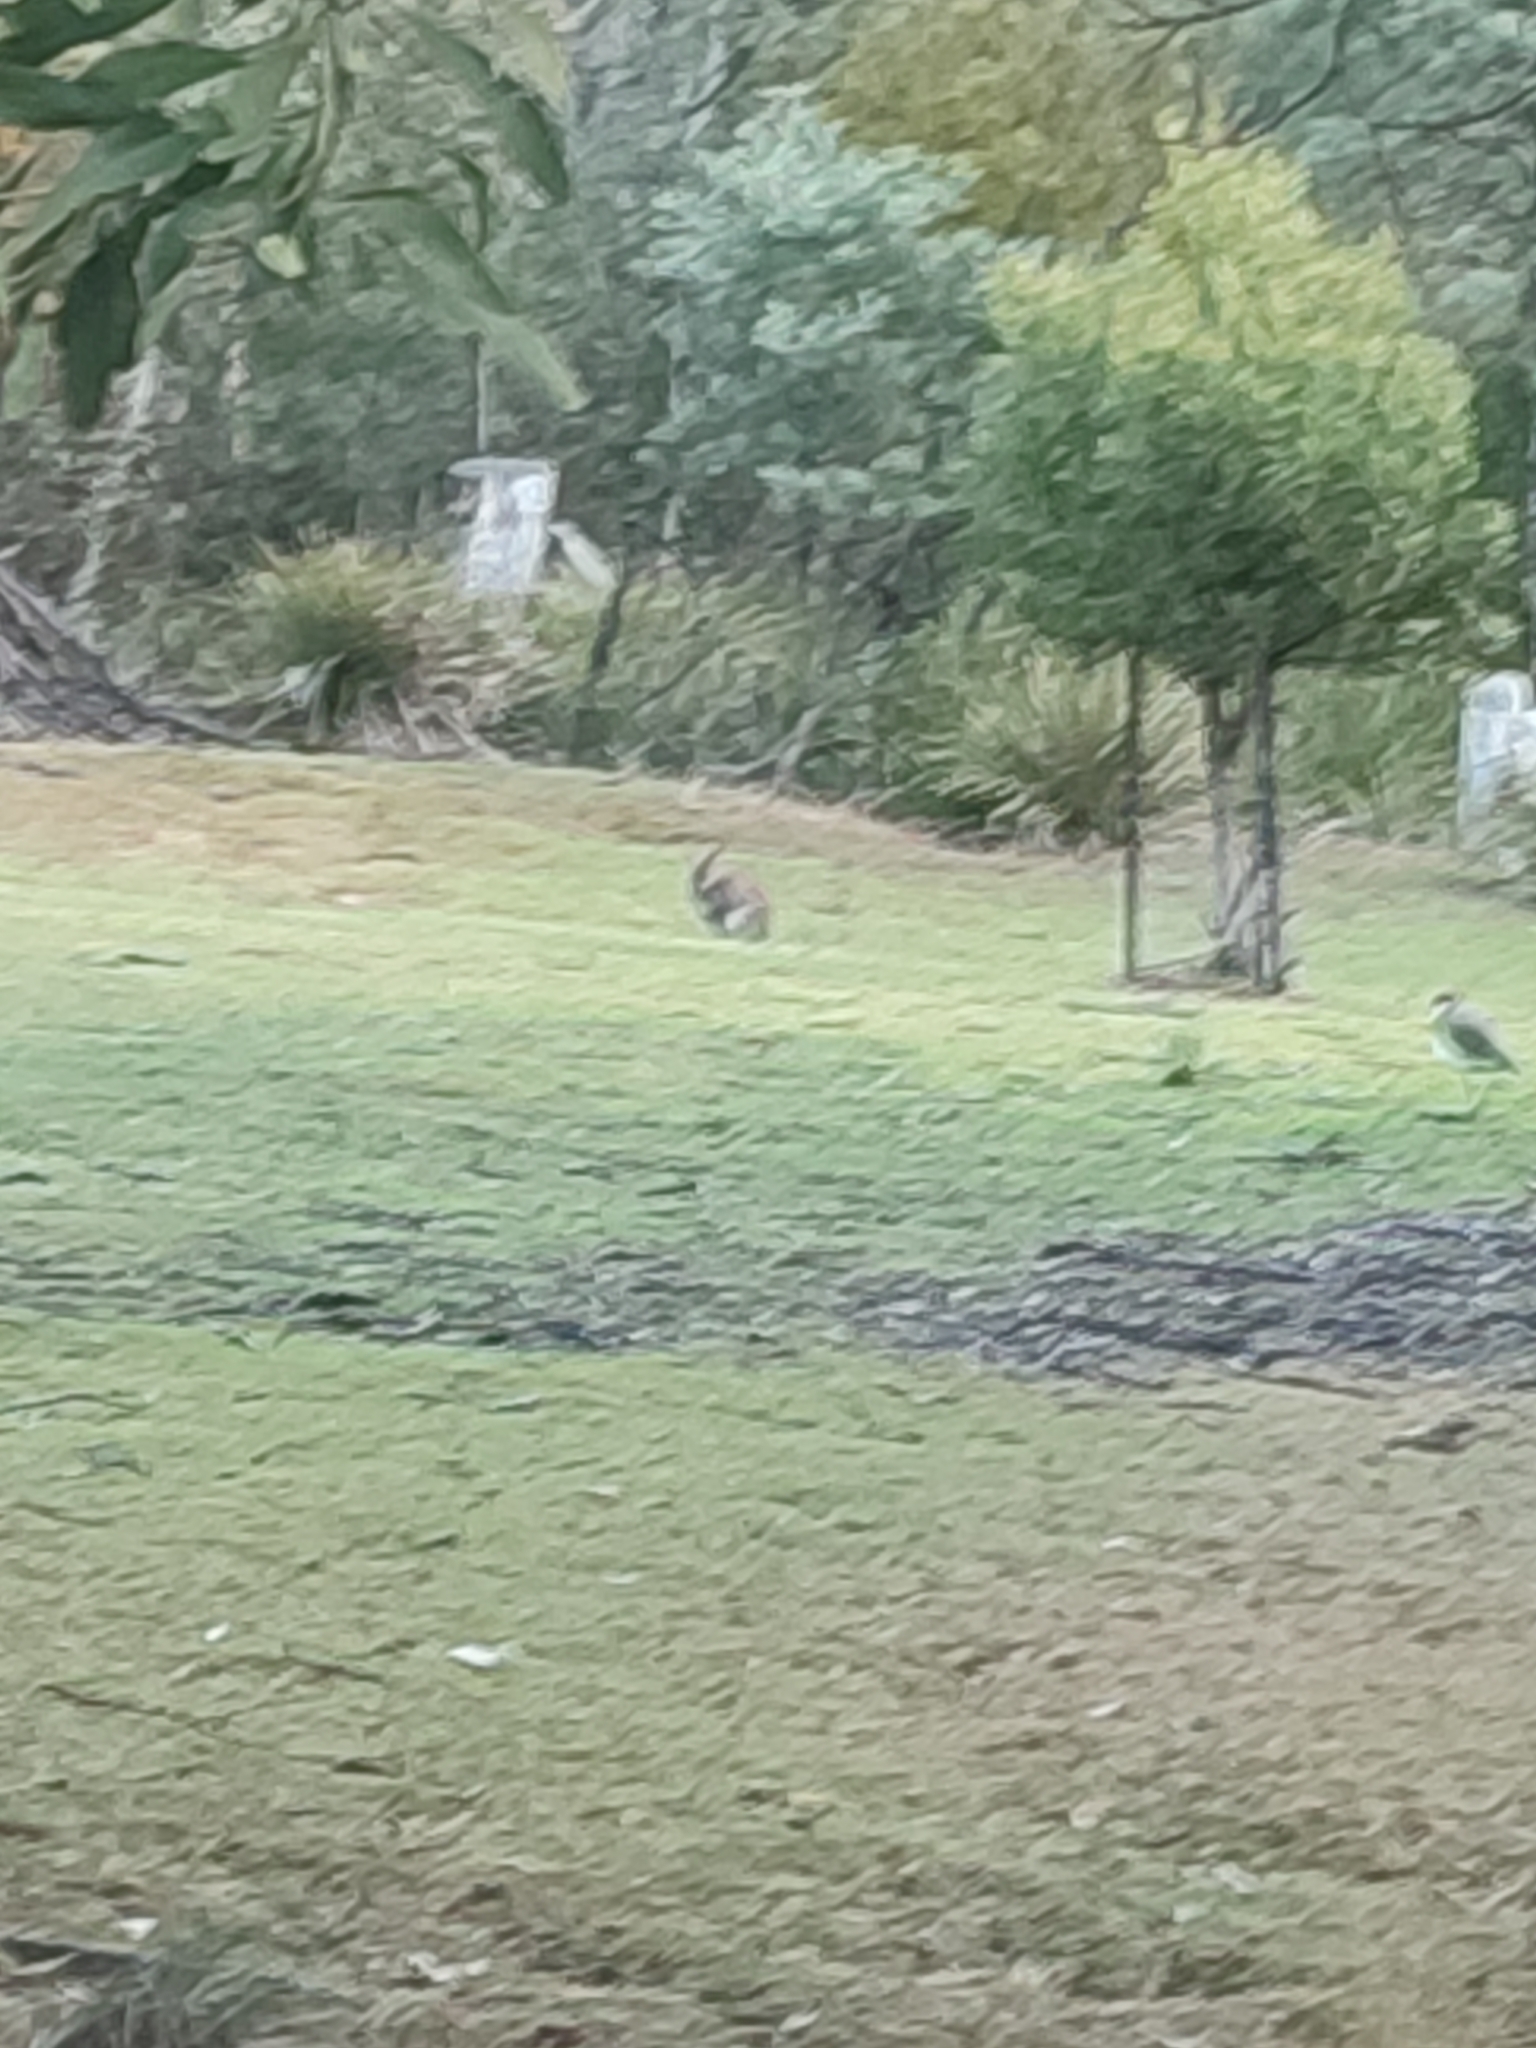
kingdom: Animalia
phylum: Chordata
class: Mammalia
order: Diprotodontia
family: Macropodidae
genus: Notamacropus
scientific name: Notamacropus rufogriseus
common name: Red-necked wallaby
